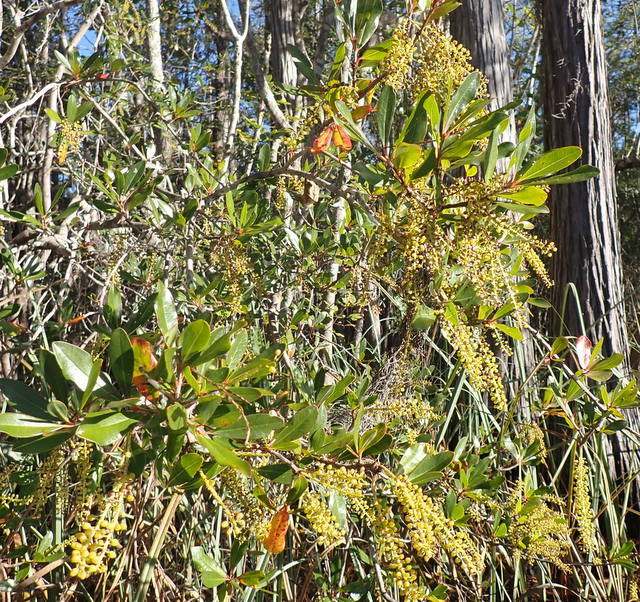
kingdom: Plantae
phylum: Tracheophyta
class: Magnoliopsida
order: Ericales
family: Cyrillaceae
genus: Cyrilla
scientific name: Cyrilla racemiflora
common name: Black titi
